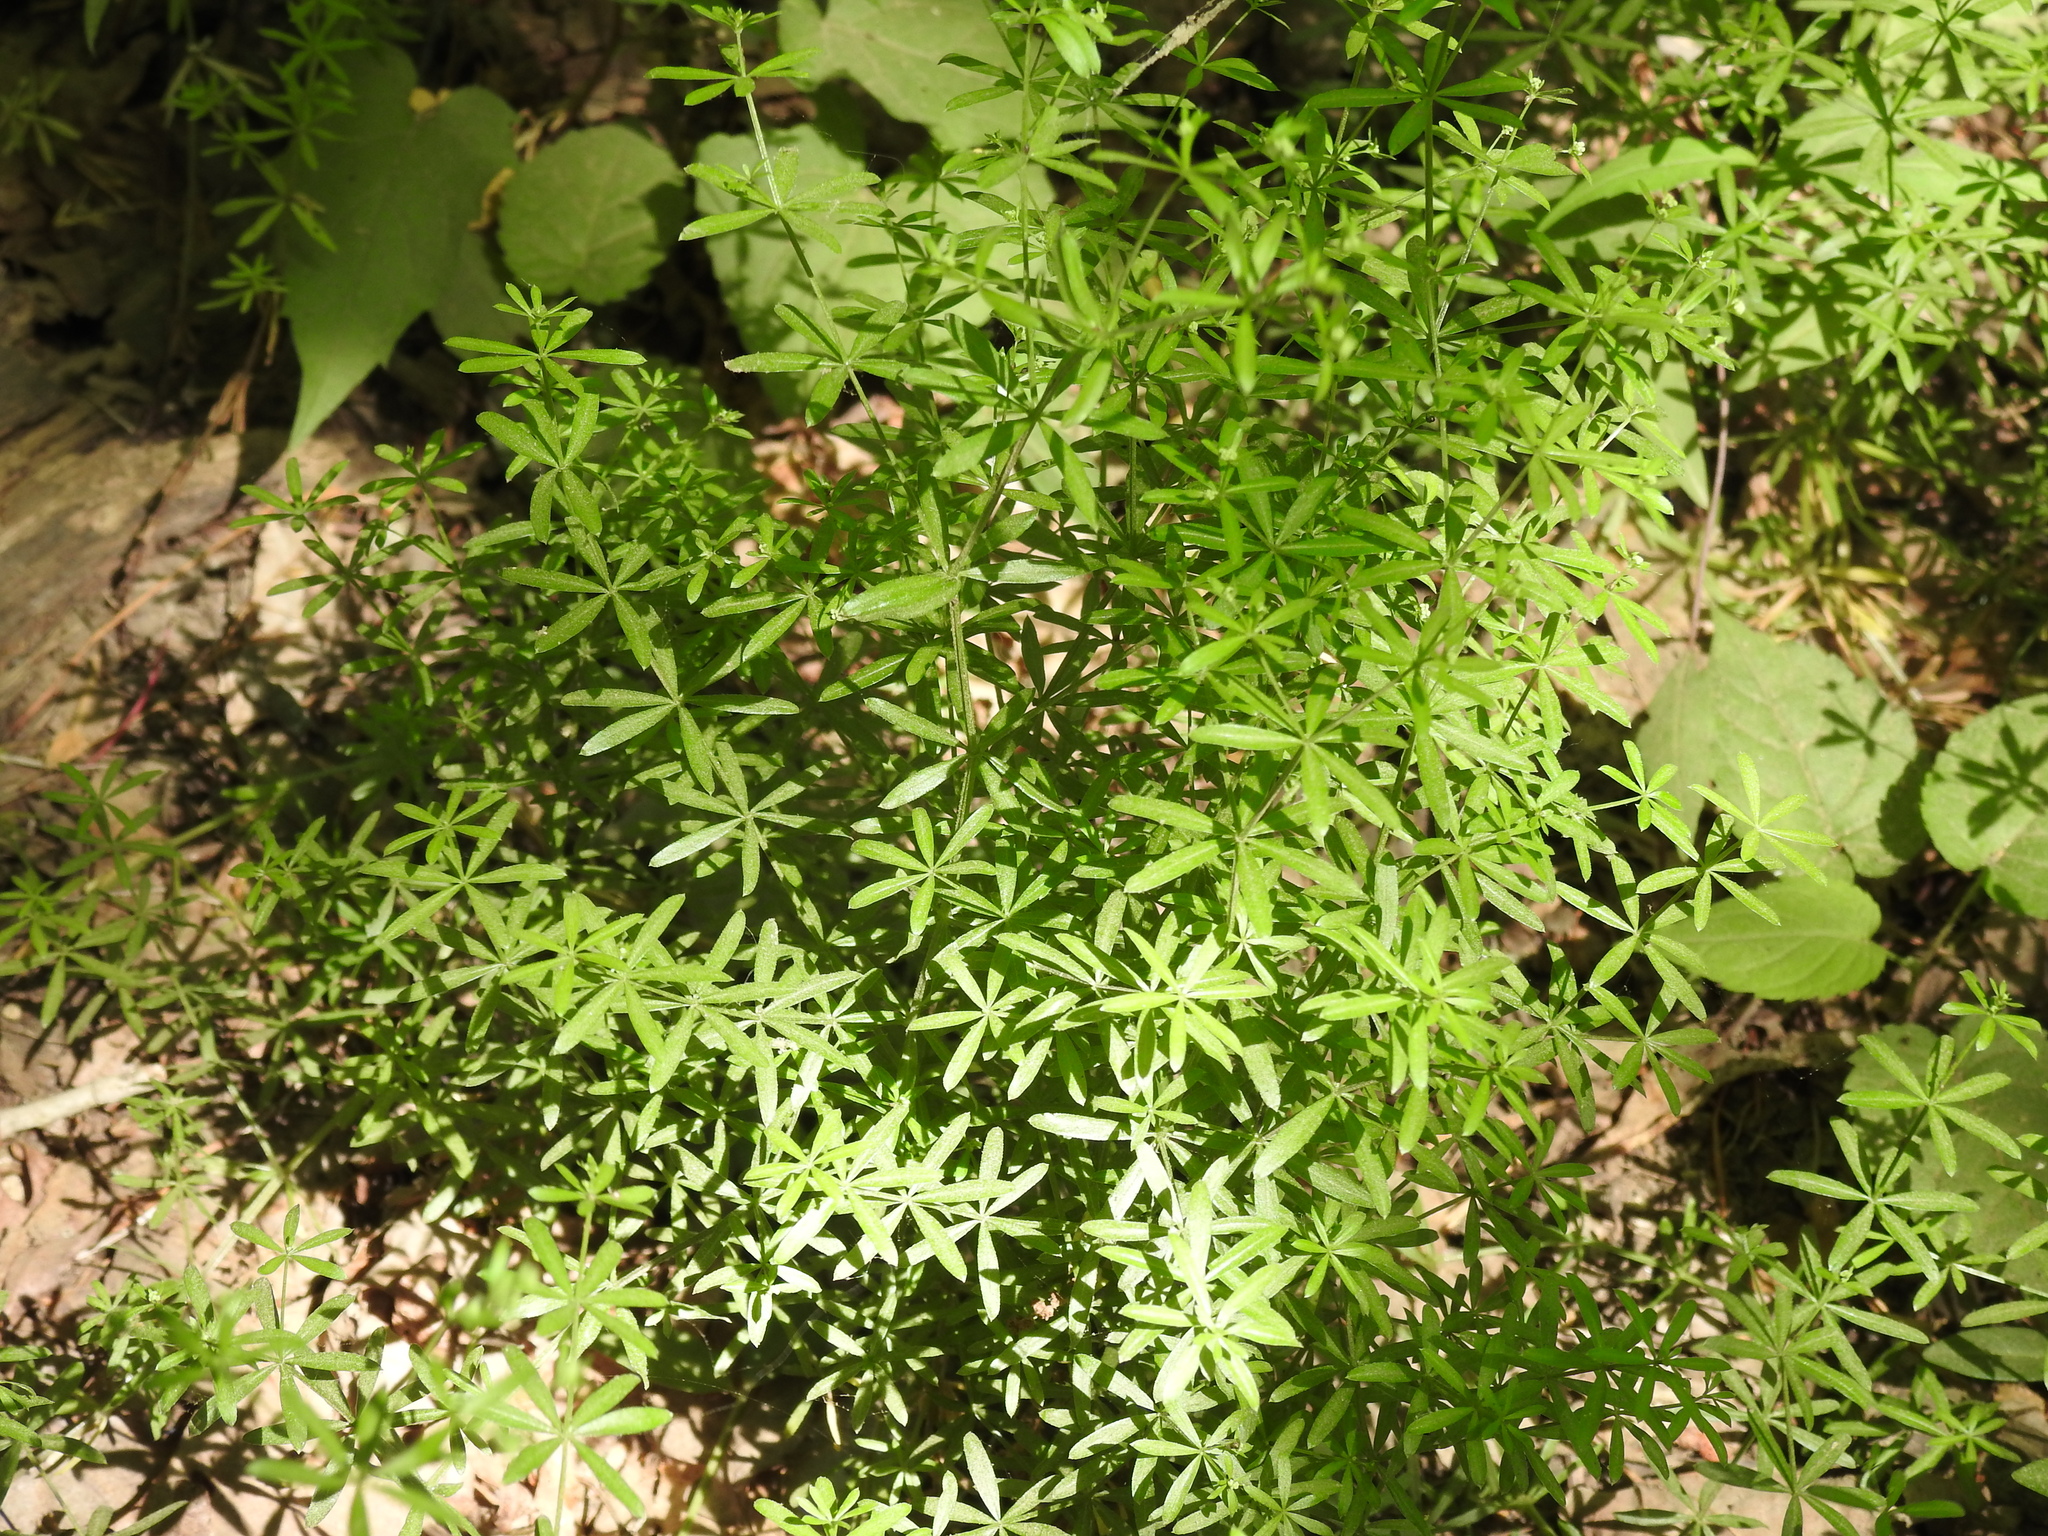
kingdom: Plantae
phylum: Tracheophyta
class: Magnoliopsida
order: Gentianales
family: Rubiaceae
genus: Galium
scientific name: Galium concinnum
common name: Shining bedstraw
